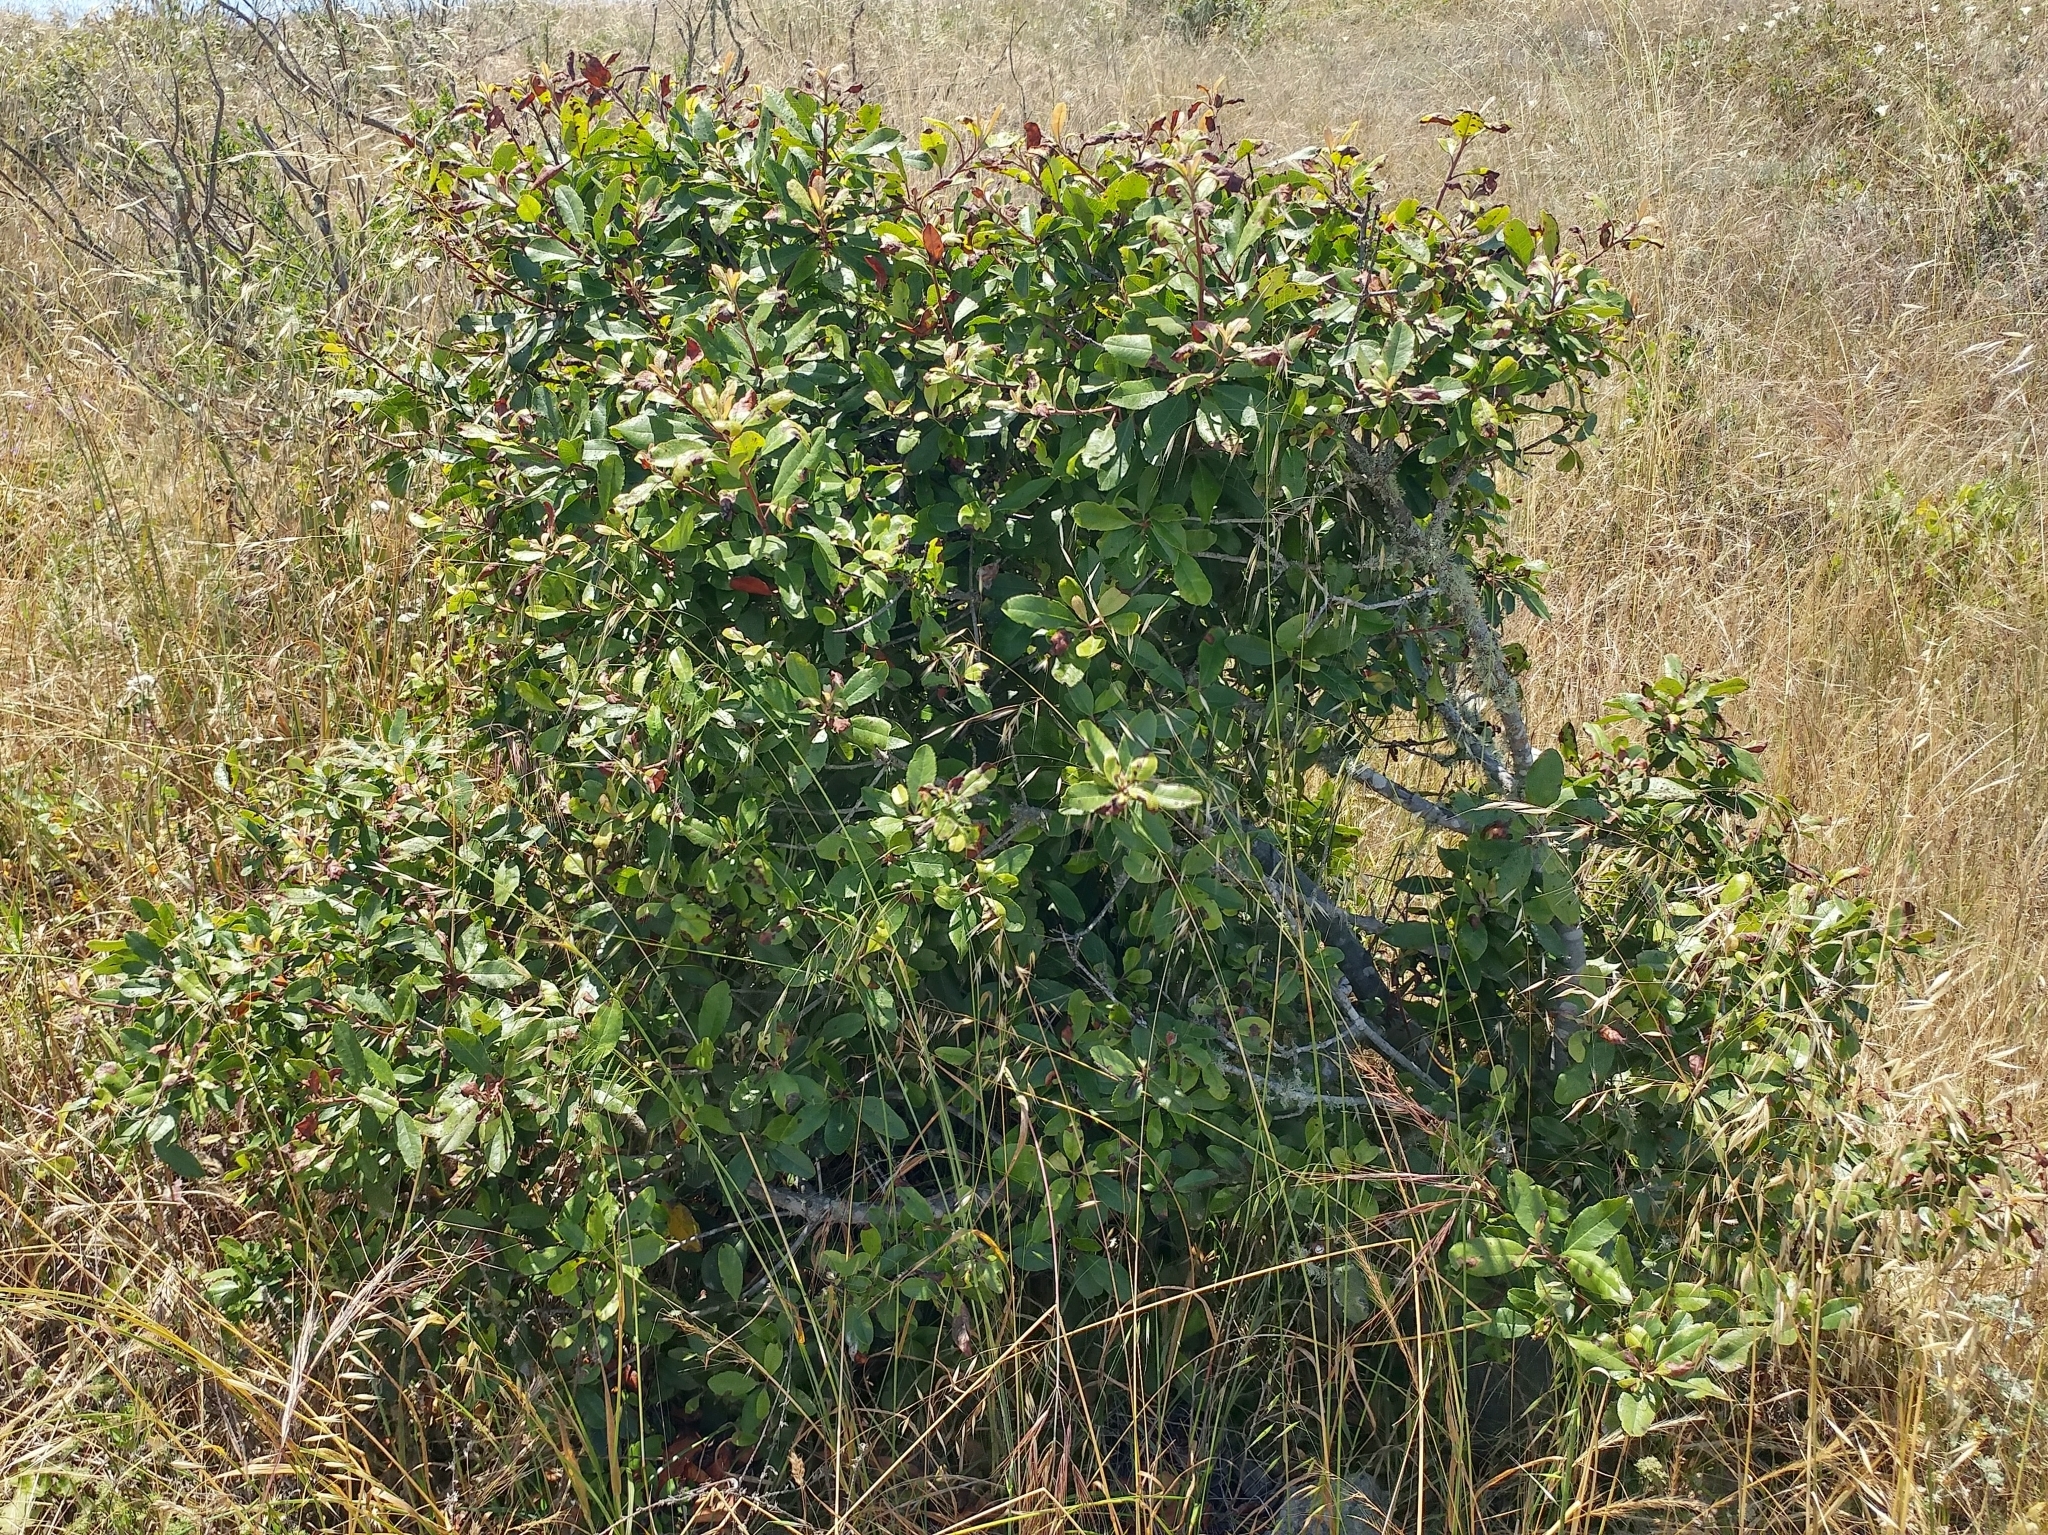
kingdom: Plantae
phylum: Tracheophyta
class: Magnoliopsida
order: Rosales
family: Rosaceae
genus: Heteromeles
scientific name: Heteromeles arbutifolia
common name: California-holly
